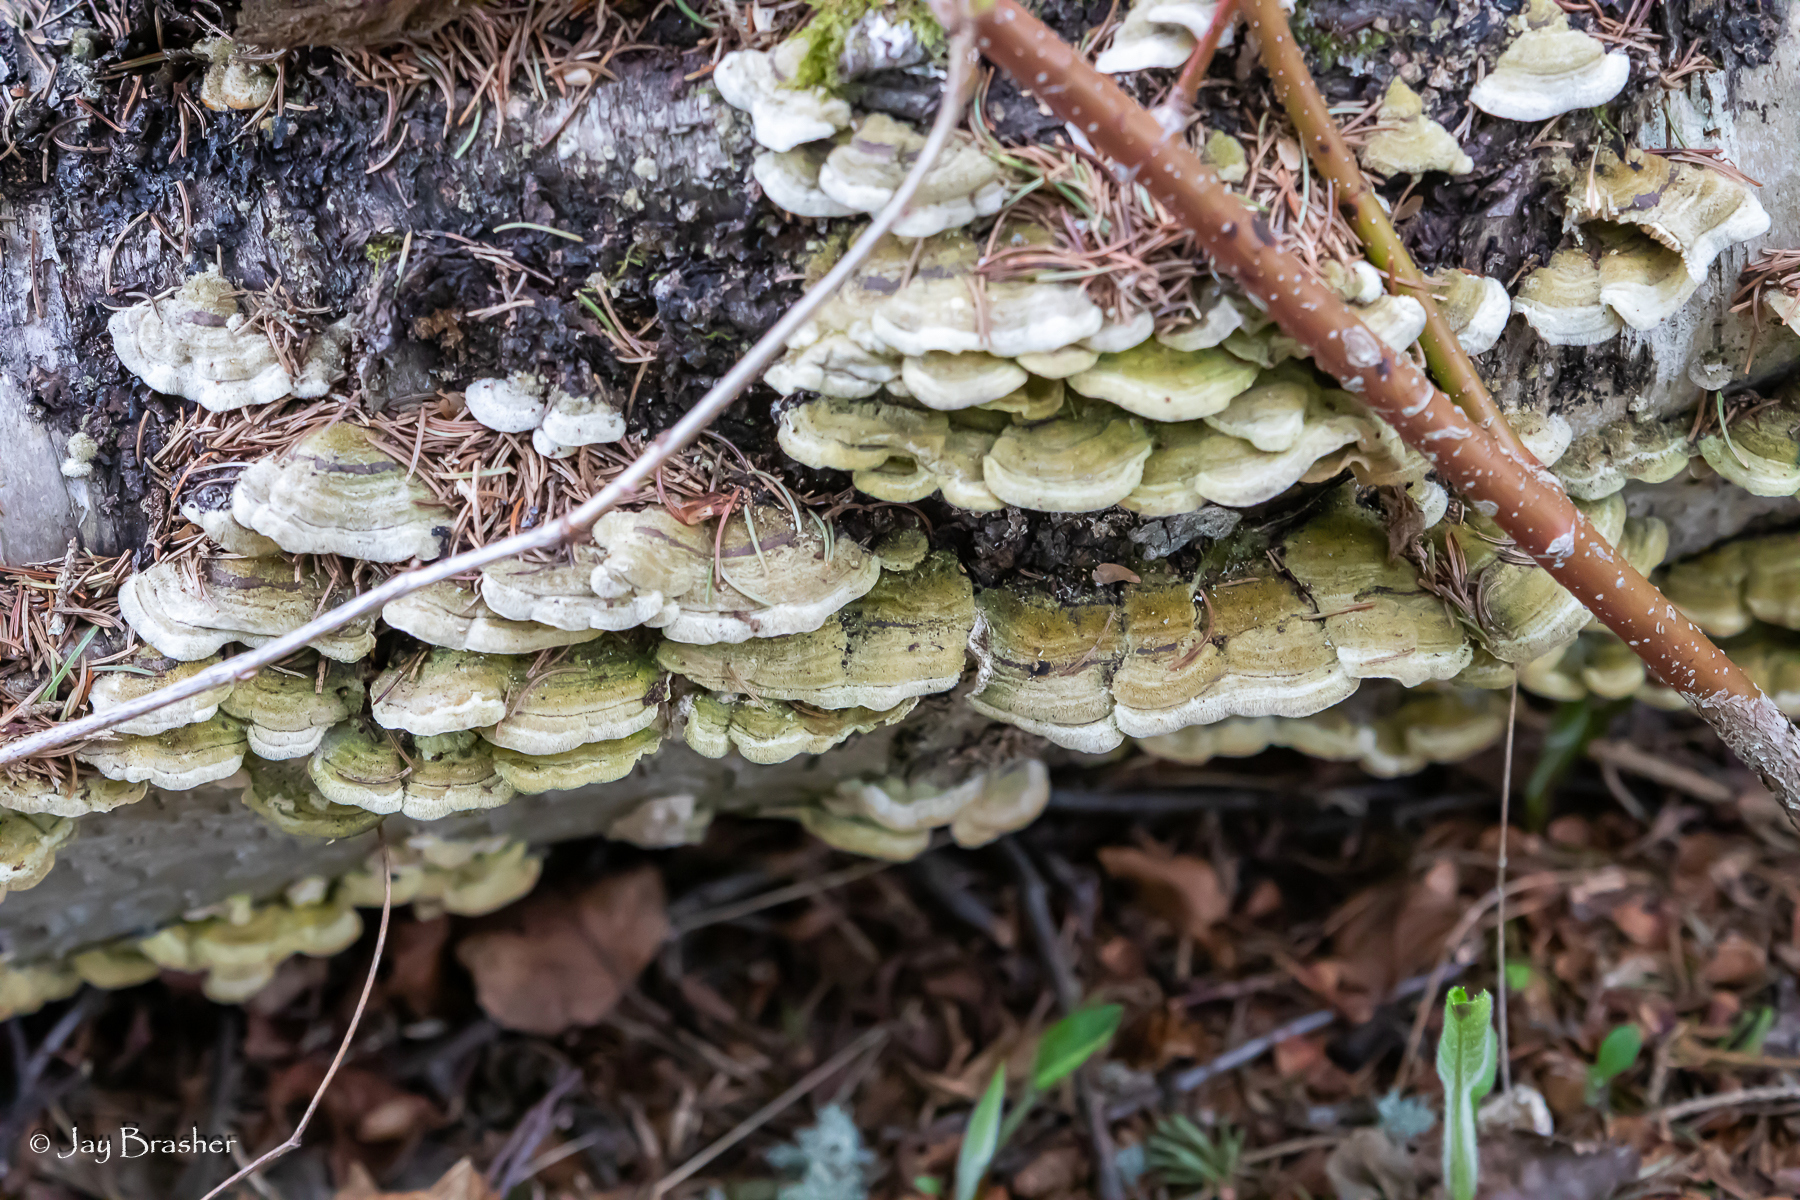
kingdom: Fungi
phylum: Basidiomycota
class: Agaricomycetes
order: Polyporales
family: Cerrenaceae
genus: Cerrena
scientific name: Cerrena unicolor
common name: Mossy maze polypore
